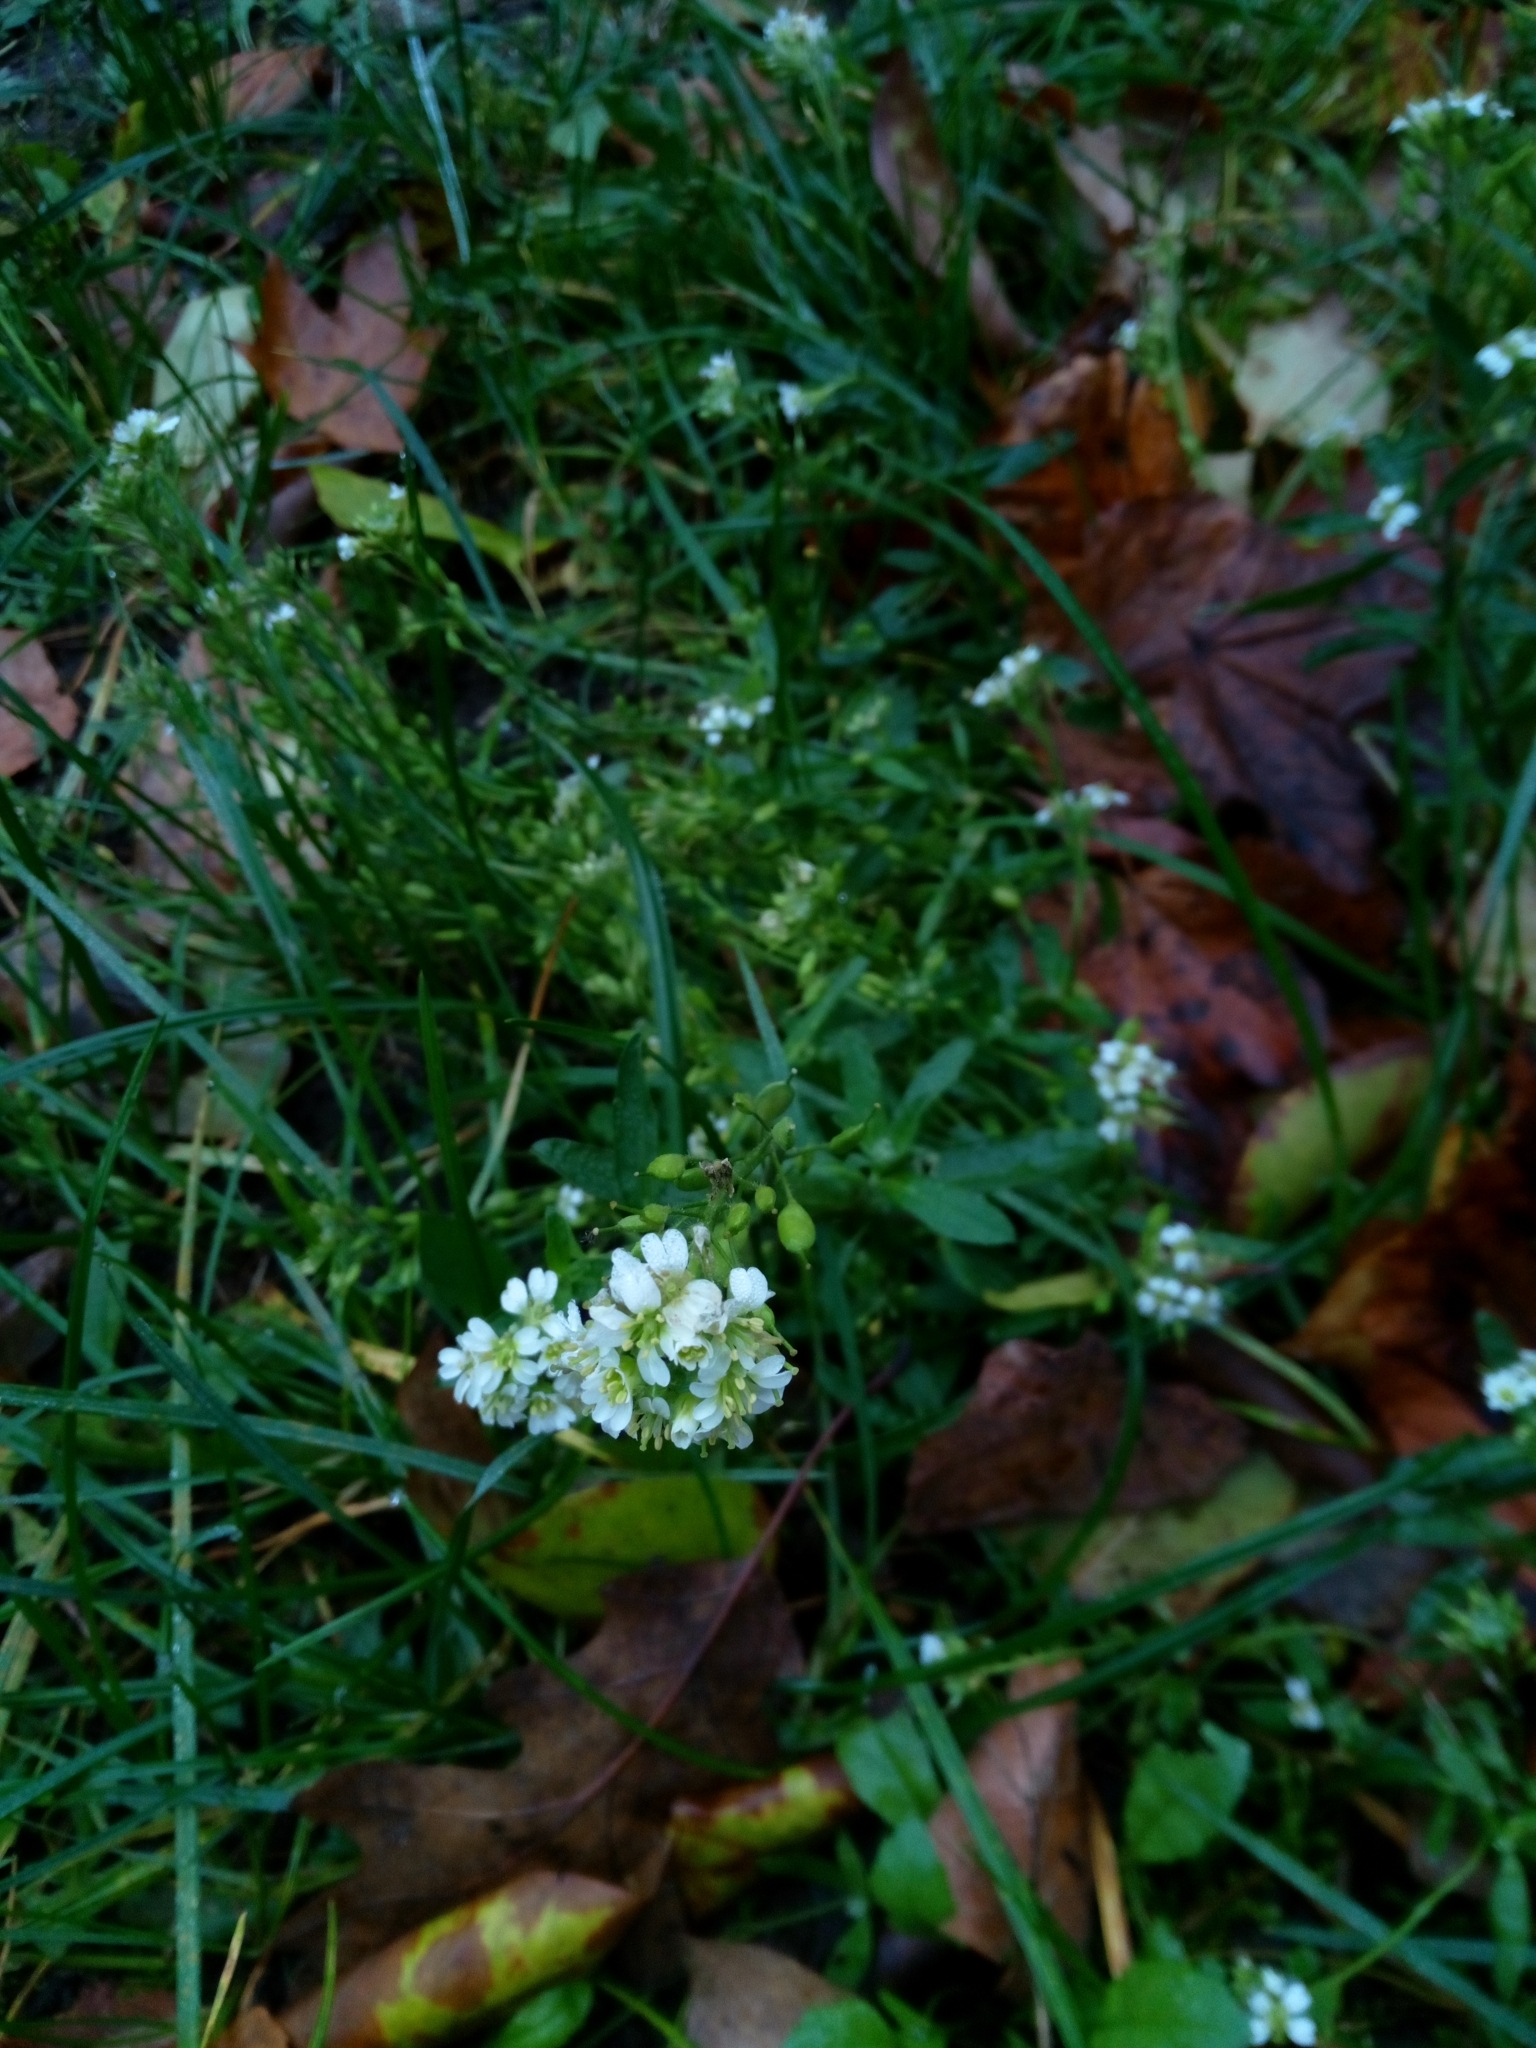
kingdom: Plantae
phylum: Tracheophyta
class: Magnoliopsida
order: Brassicales
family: Brassicaceae
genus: Berteroa
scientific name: Berteroa incana
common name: Hoary alison
